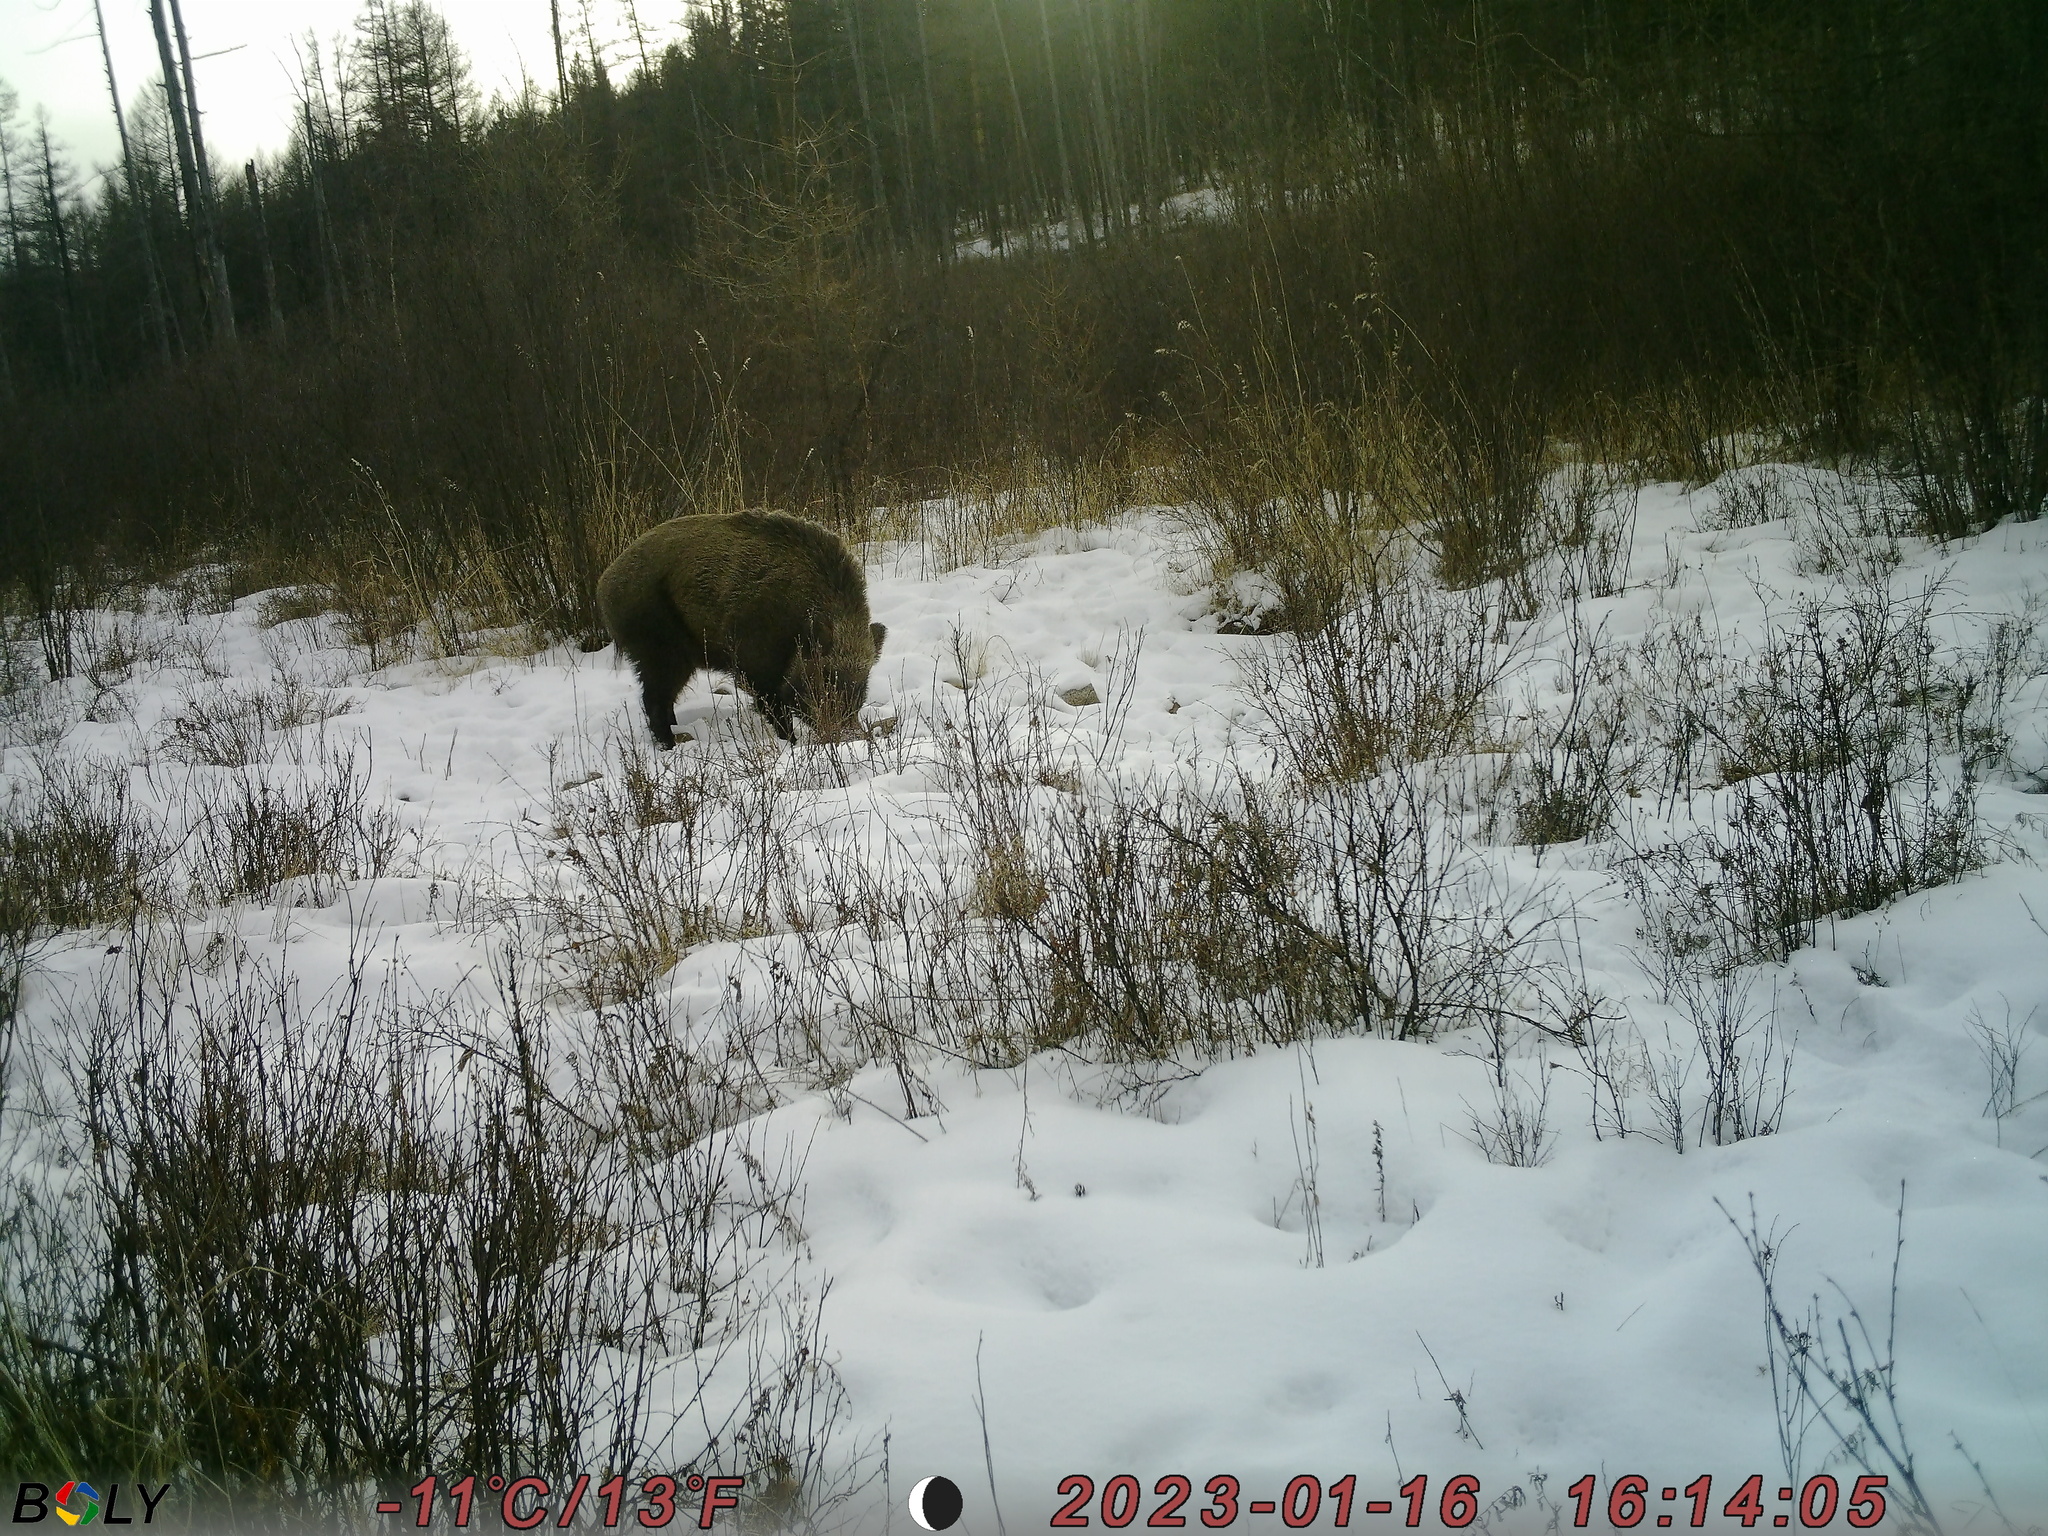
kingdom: Animalia
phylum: Chordata
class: Mammalia
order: Artiodactyla
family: Suidae
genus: Sus
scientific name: Sus scrofa
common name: Wild boar
